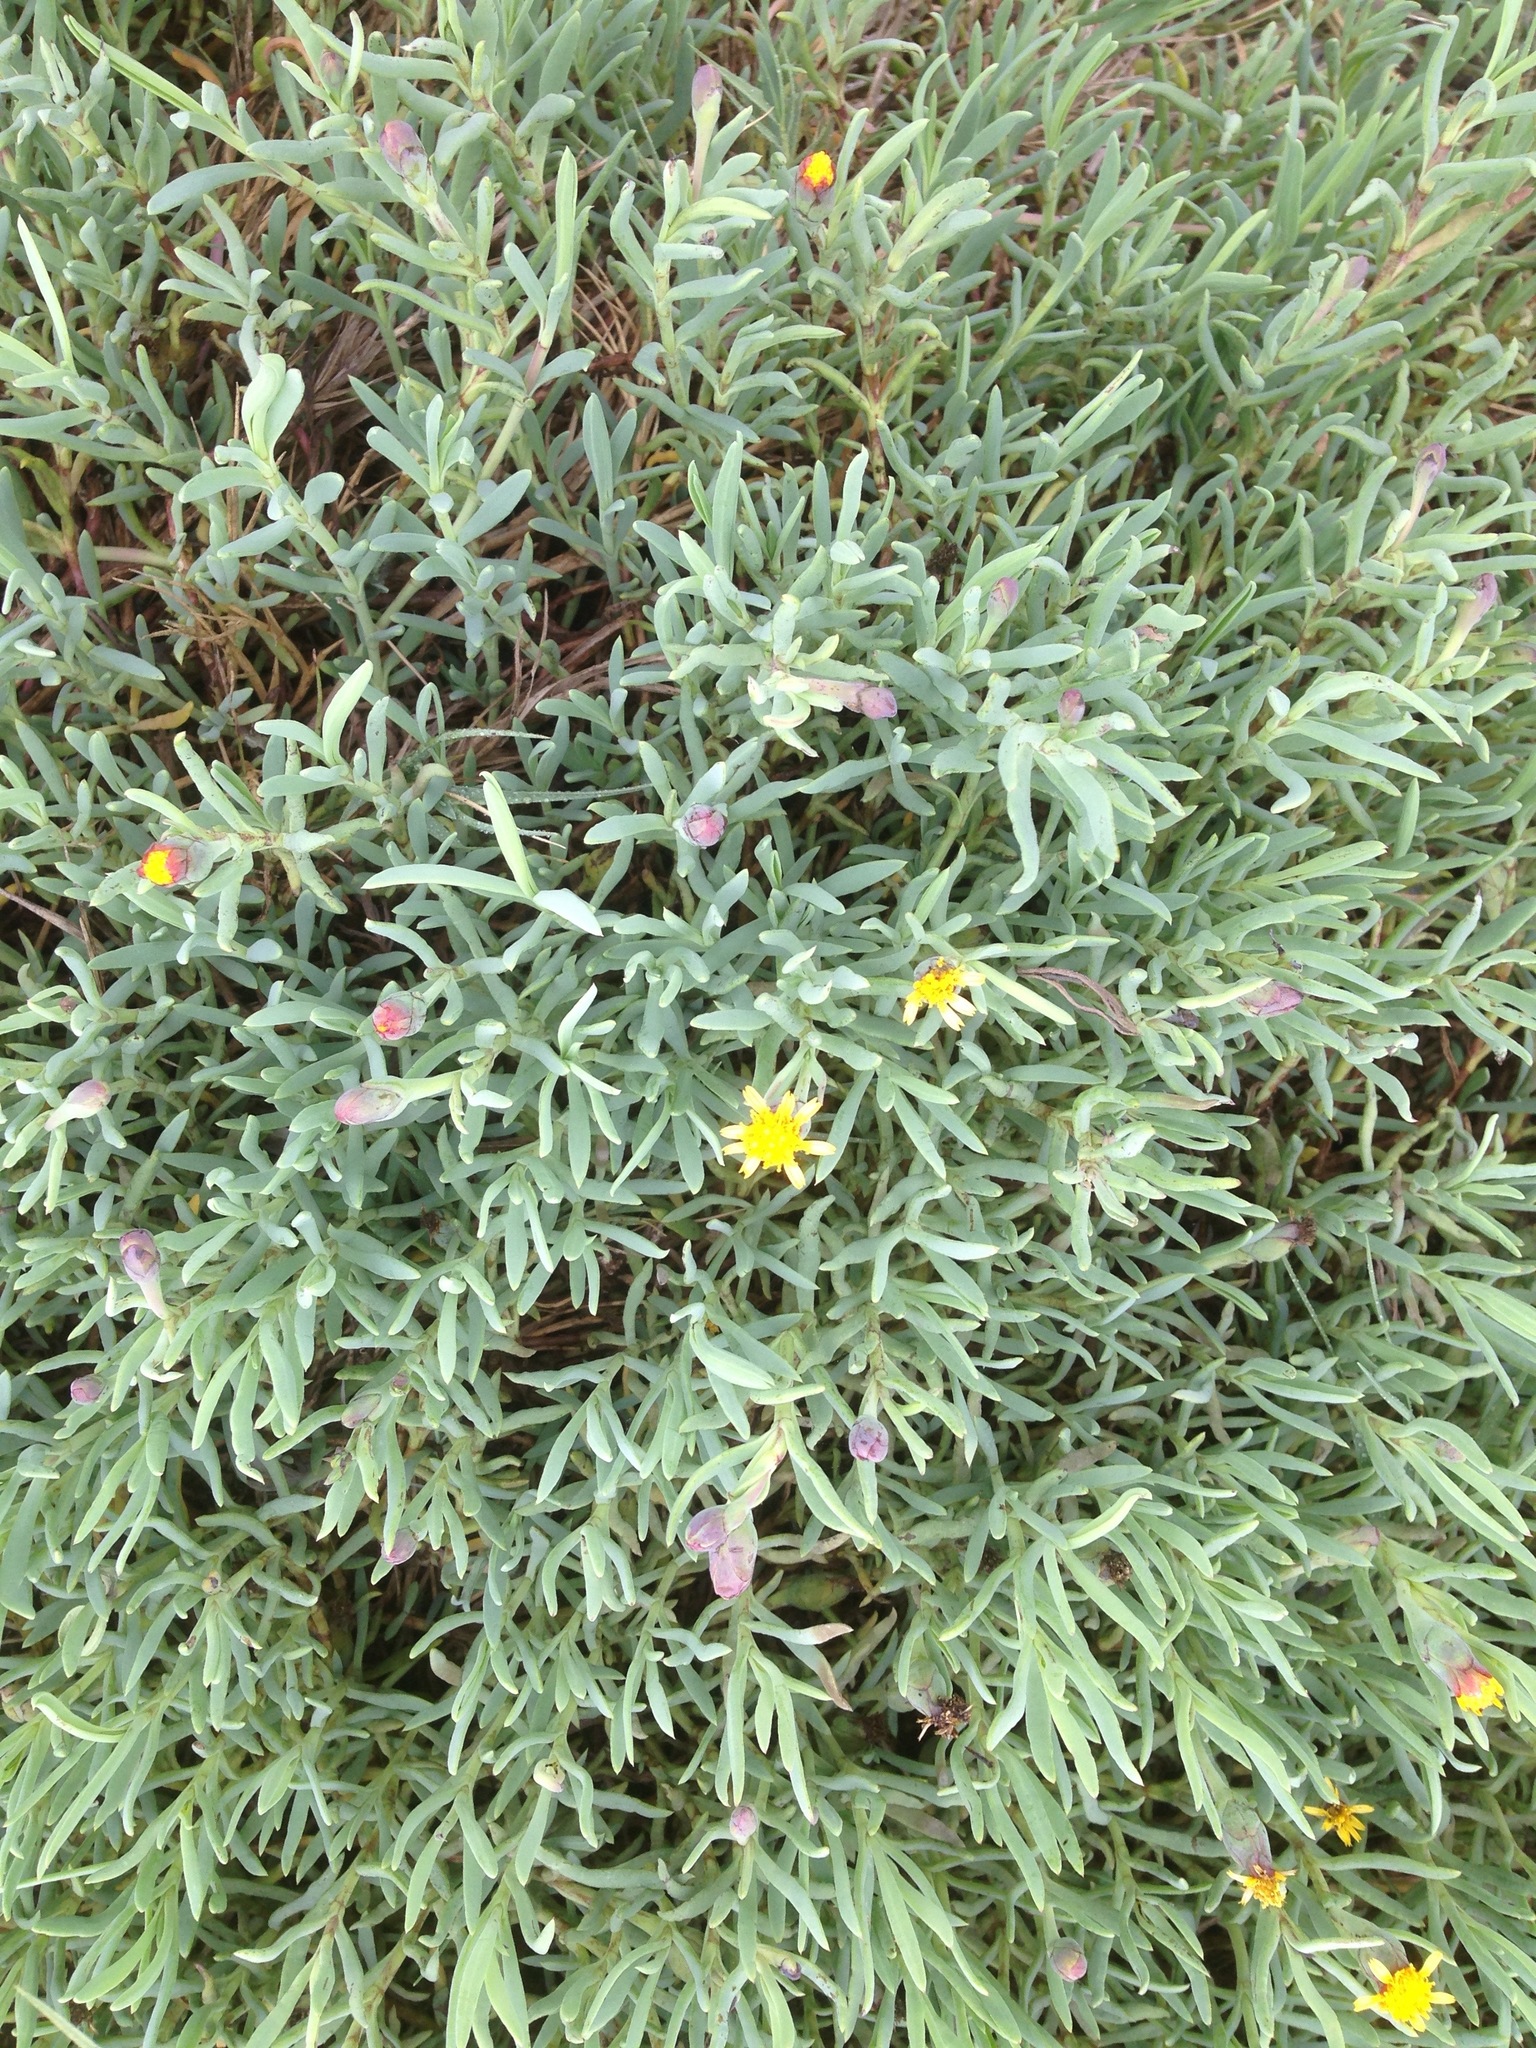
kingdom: Plantae
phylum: Tracheophyta
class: Magnoliopsida
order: Asterales
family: Asteraceae
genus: Jaumea
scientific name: Jaumea carnosa
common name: Fleshy jaumea
